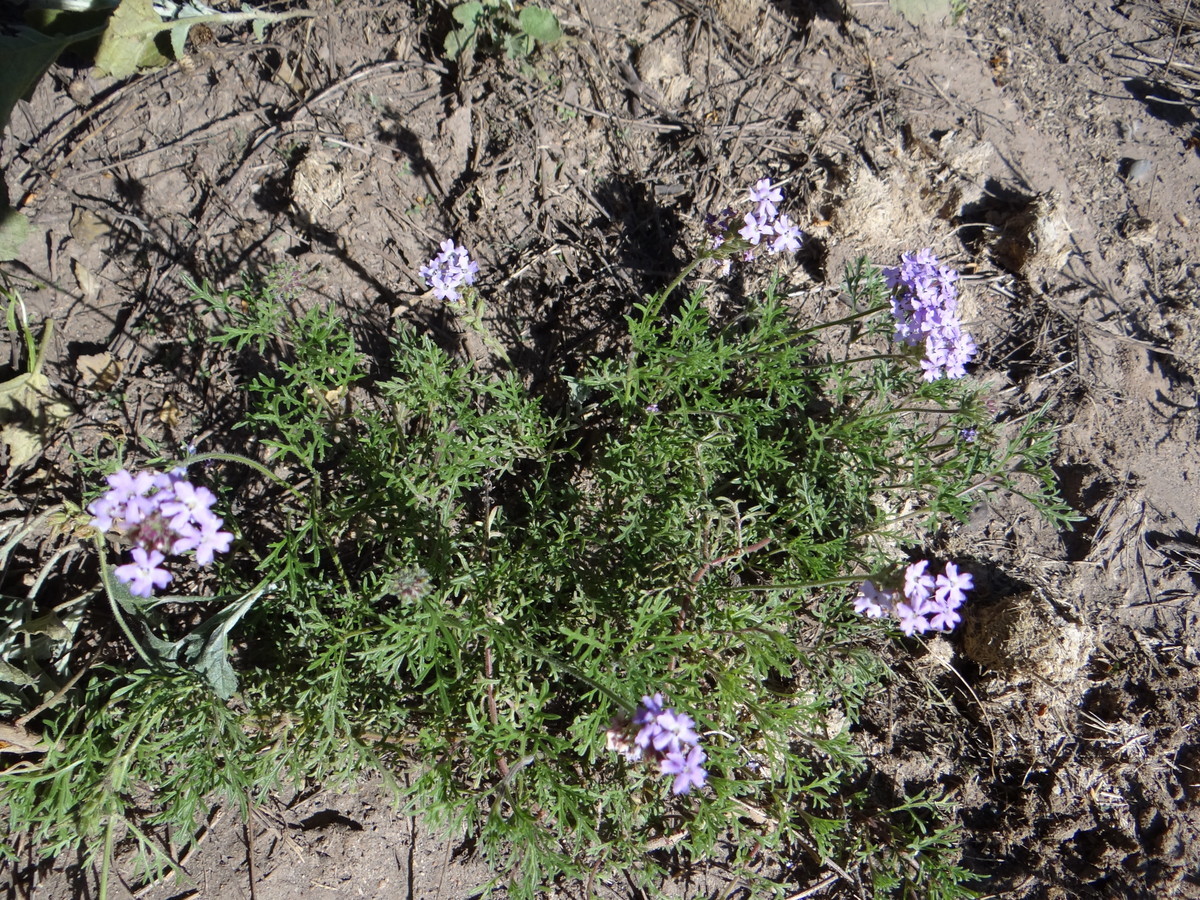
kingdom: Plantae
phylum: Tracheophyta
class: Magnoliopsida
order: Lamiales
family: Verbenaceae
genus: Verbena
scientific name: Verbena mendocina
